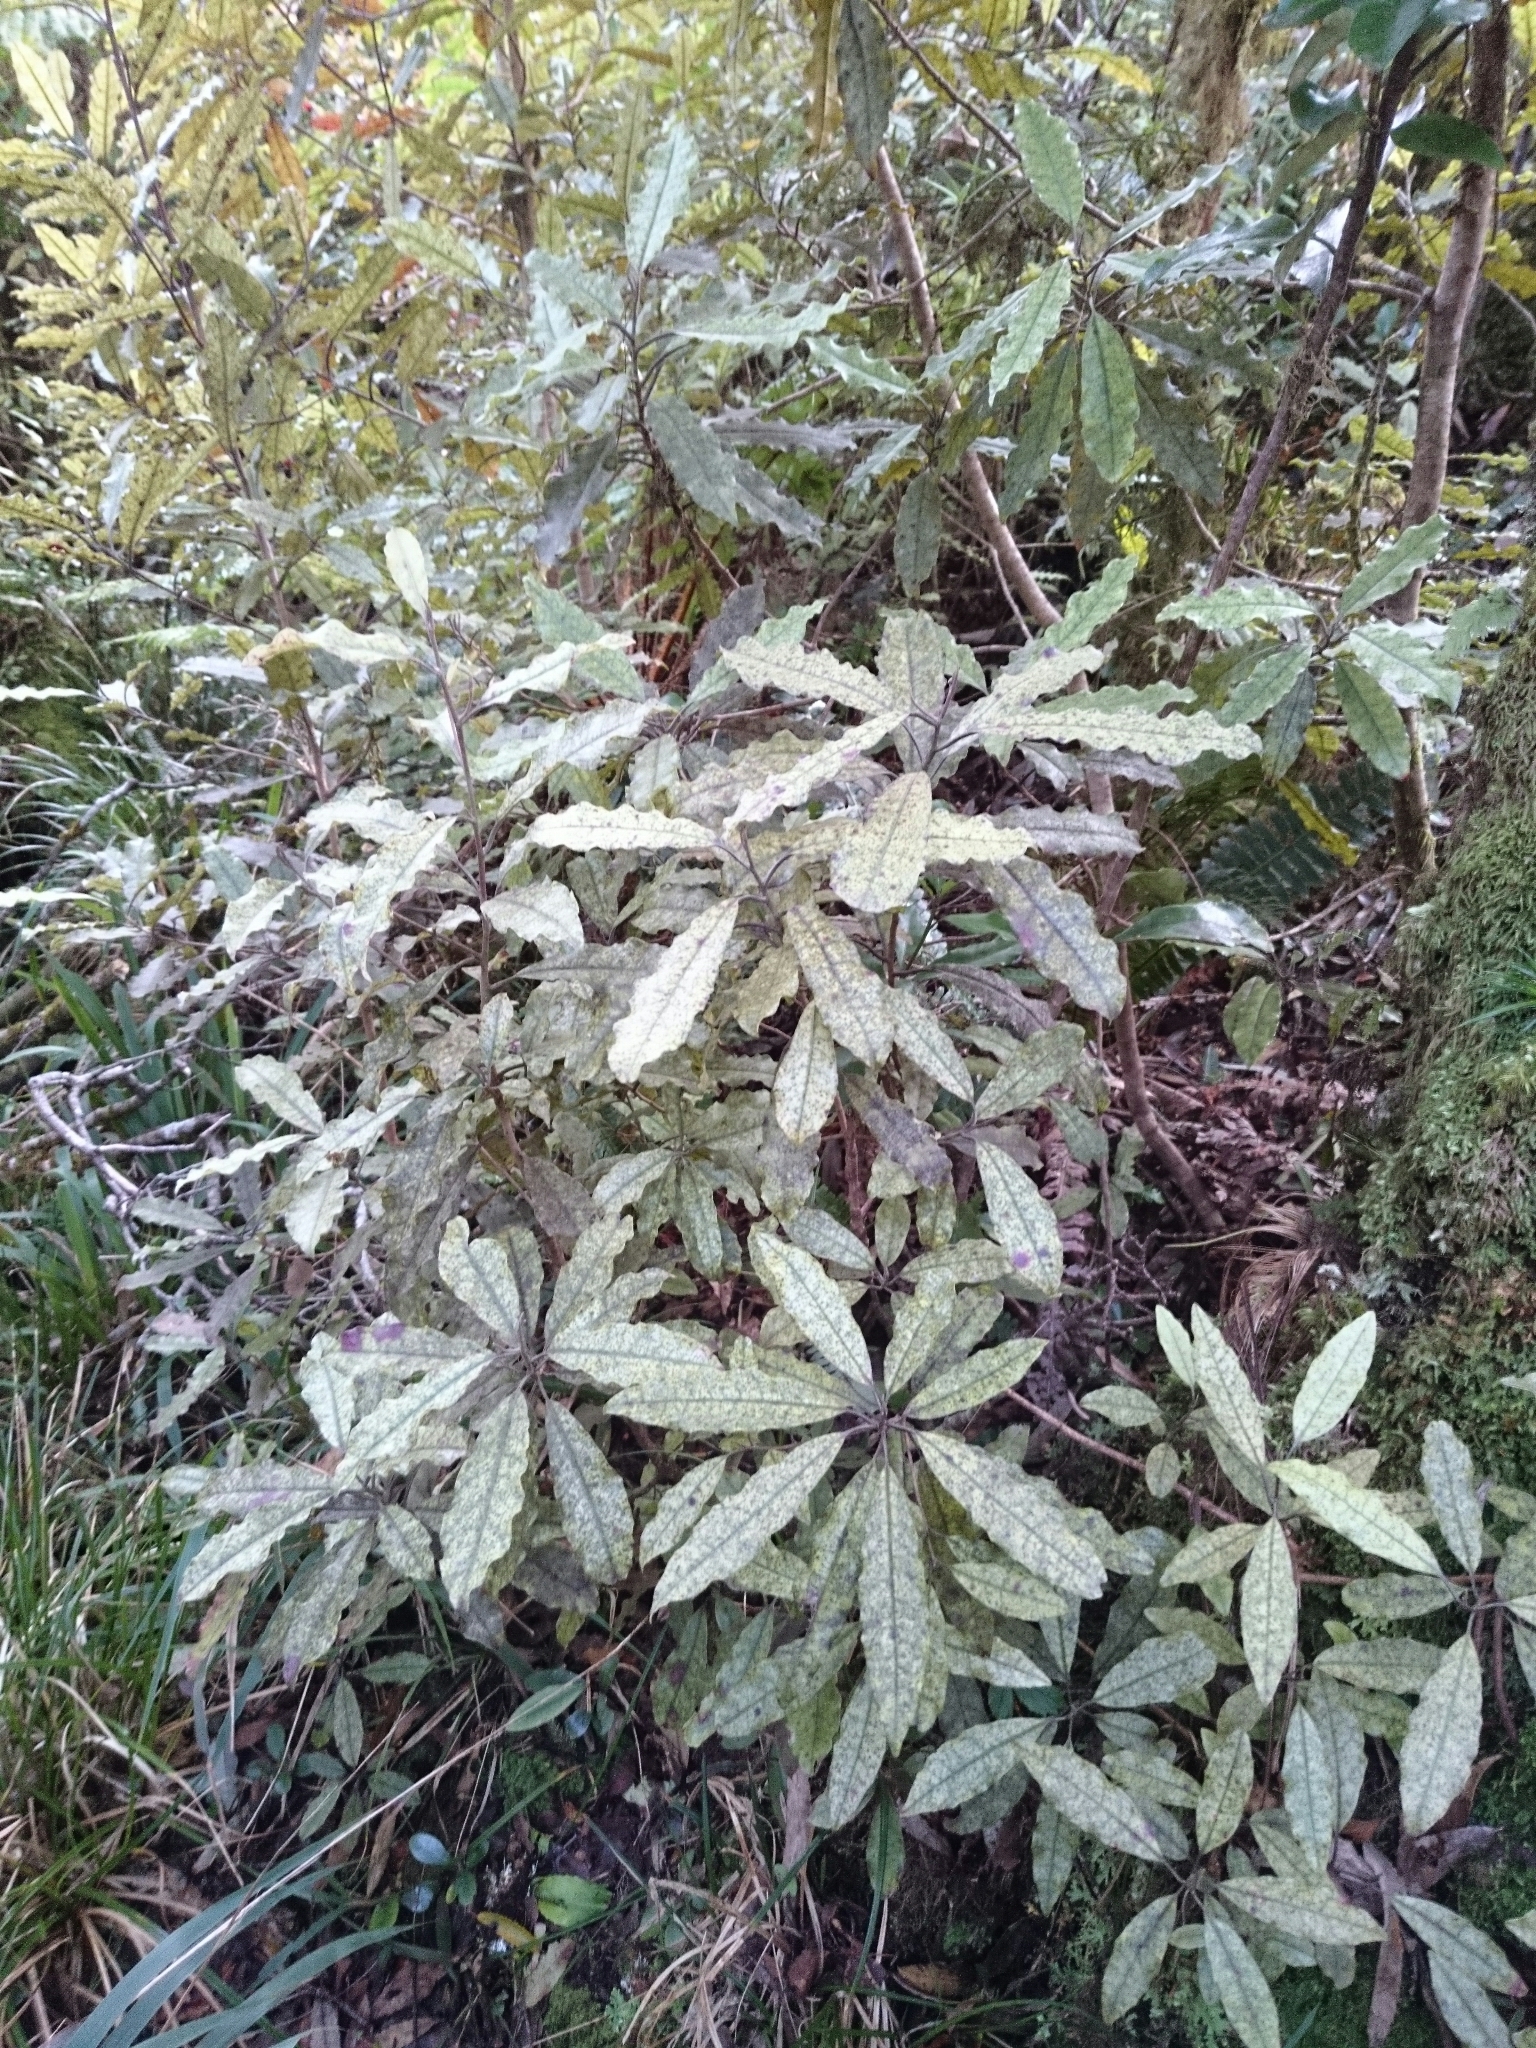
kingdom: Plantae
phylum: Tracheophyta
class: Magnoliopsida
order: Paracryphiales
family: Paracryphiaceae
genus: Quintinia
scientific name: Quintinia serrata
